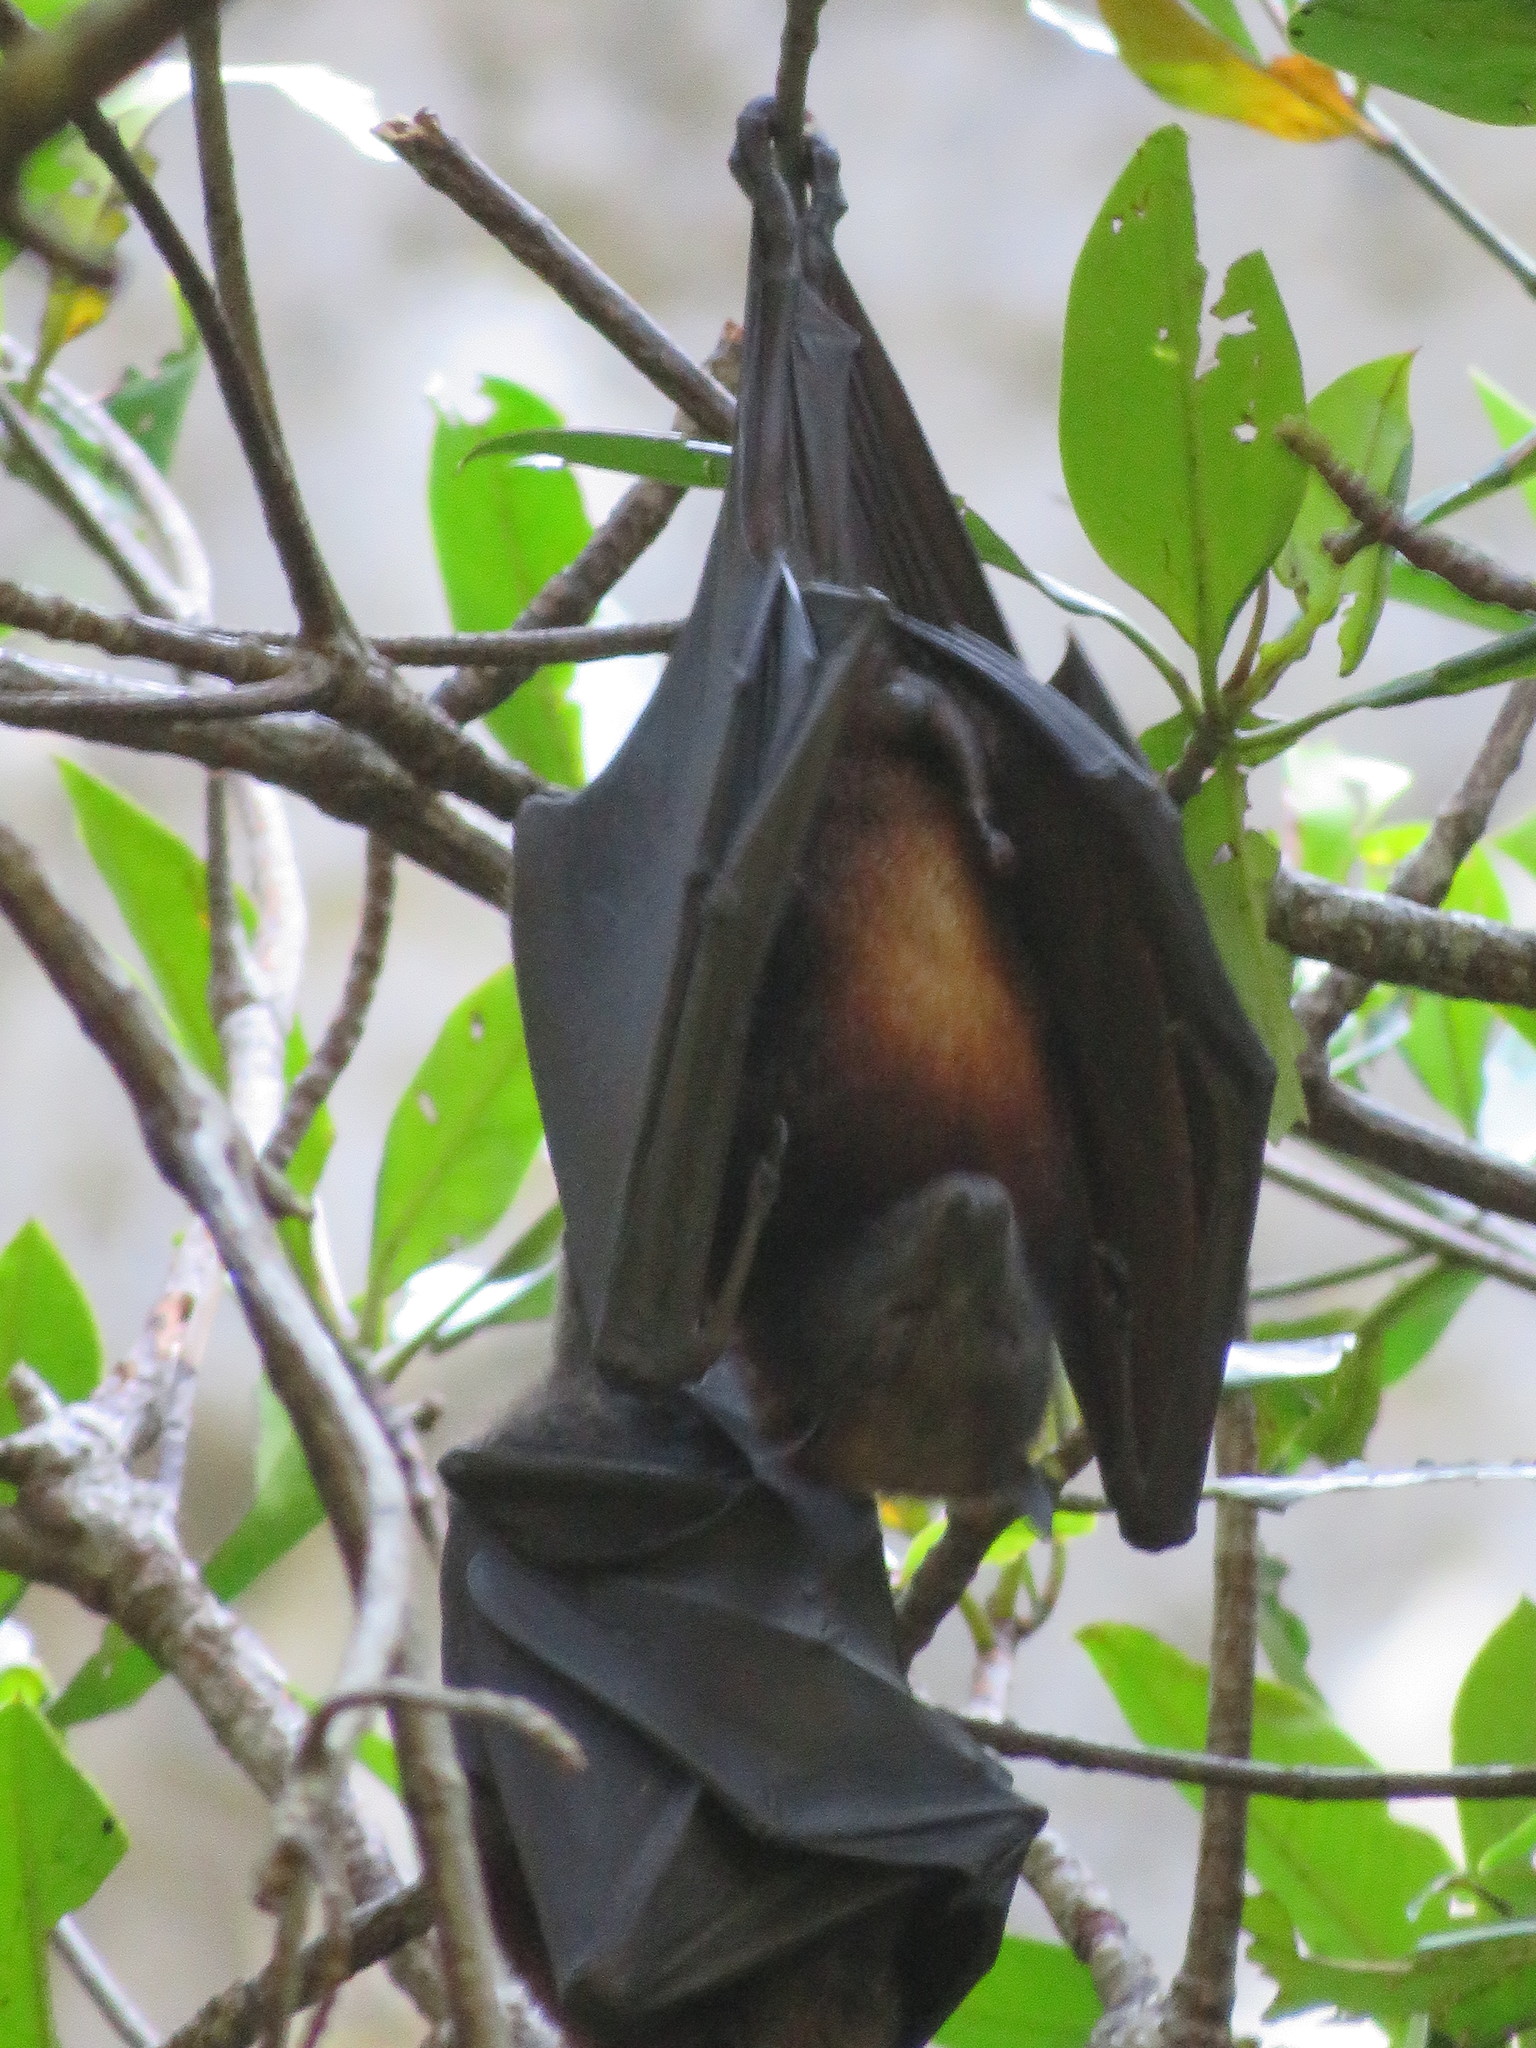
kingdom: Animalia
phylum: Chordata
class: Mammalia
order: Chiroptera
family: Pteropodidae
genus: Pteropus
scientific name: Pteropus hypomelanus
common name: Variable flying fox
